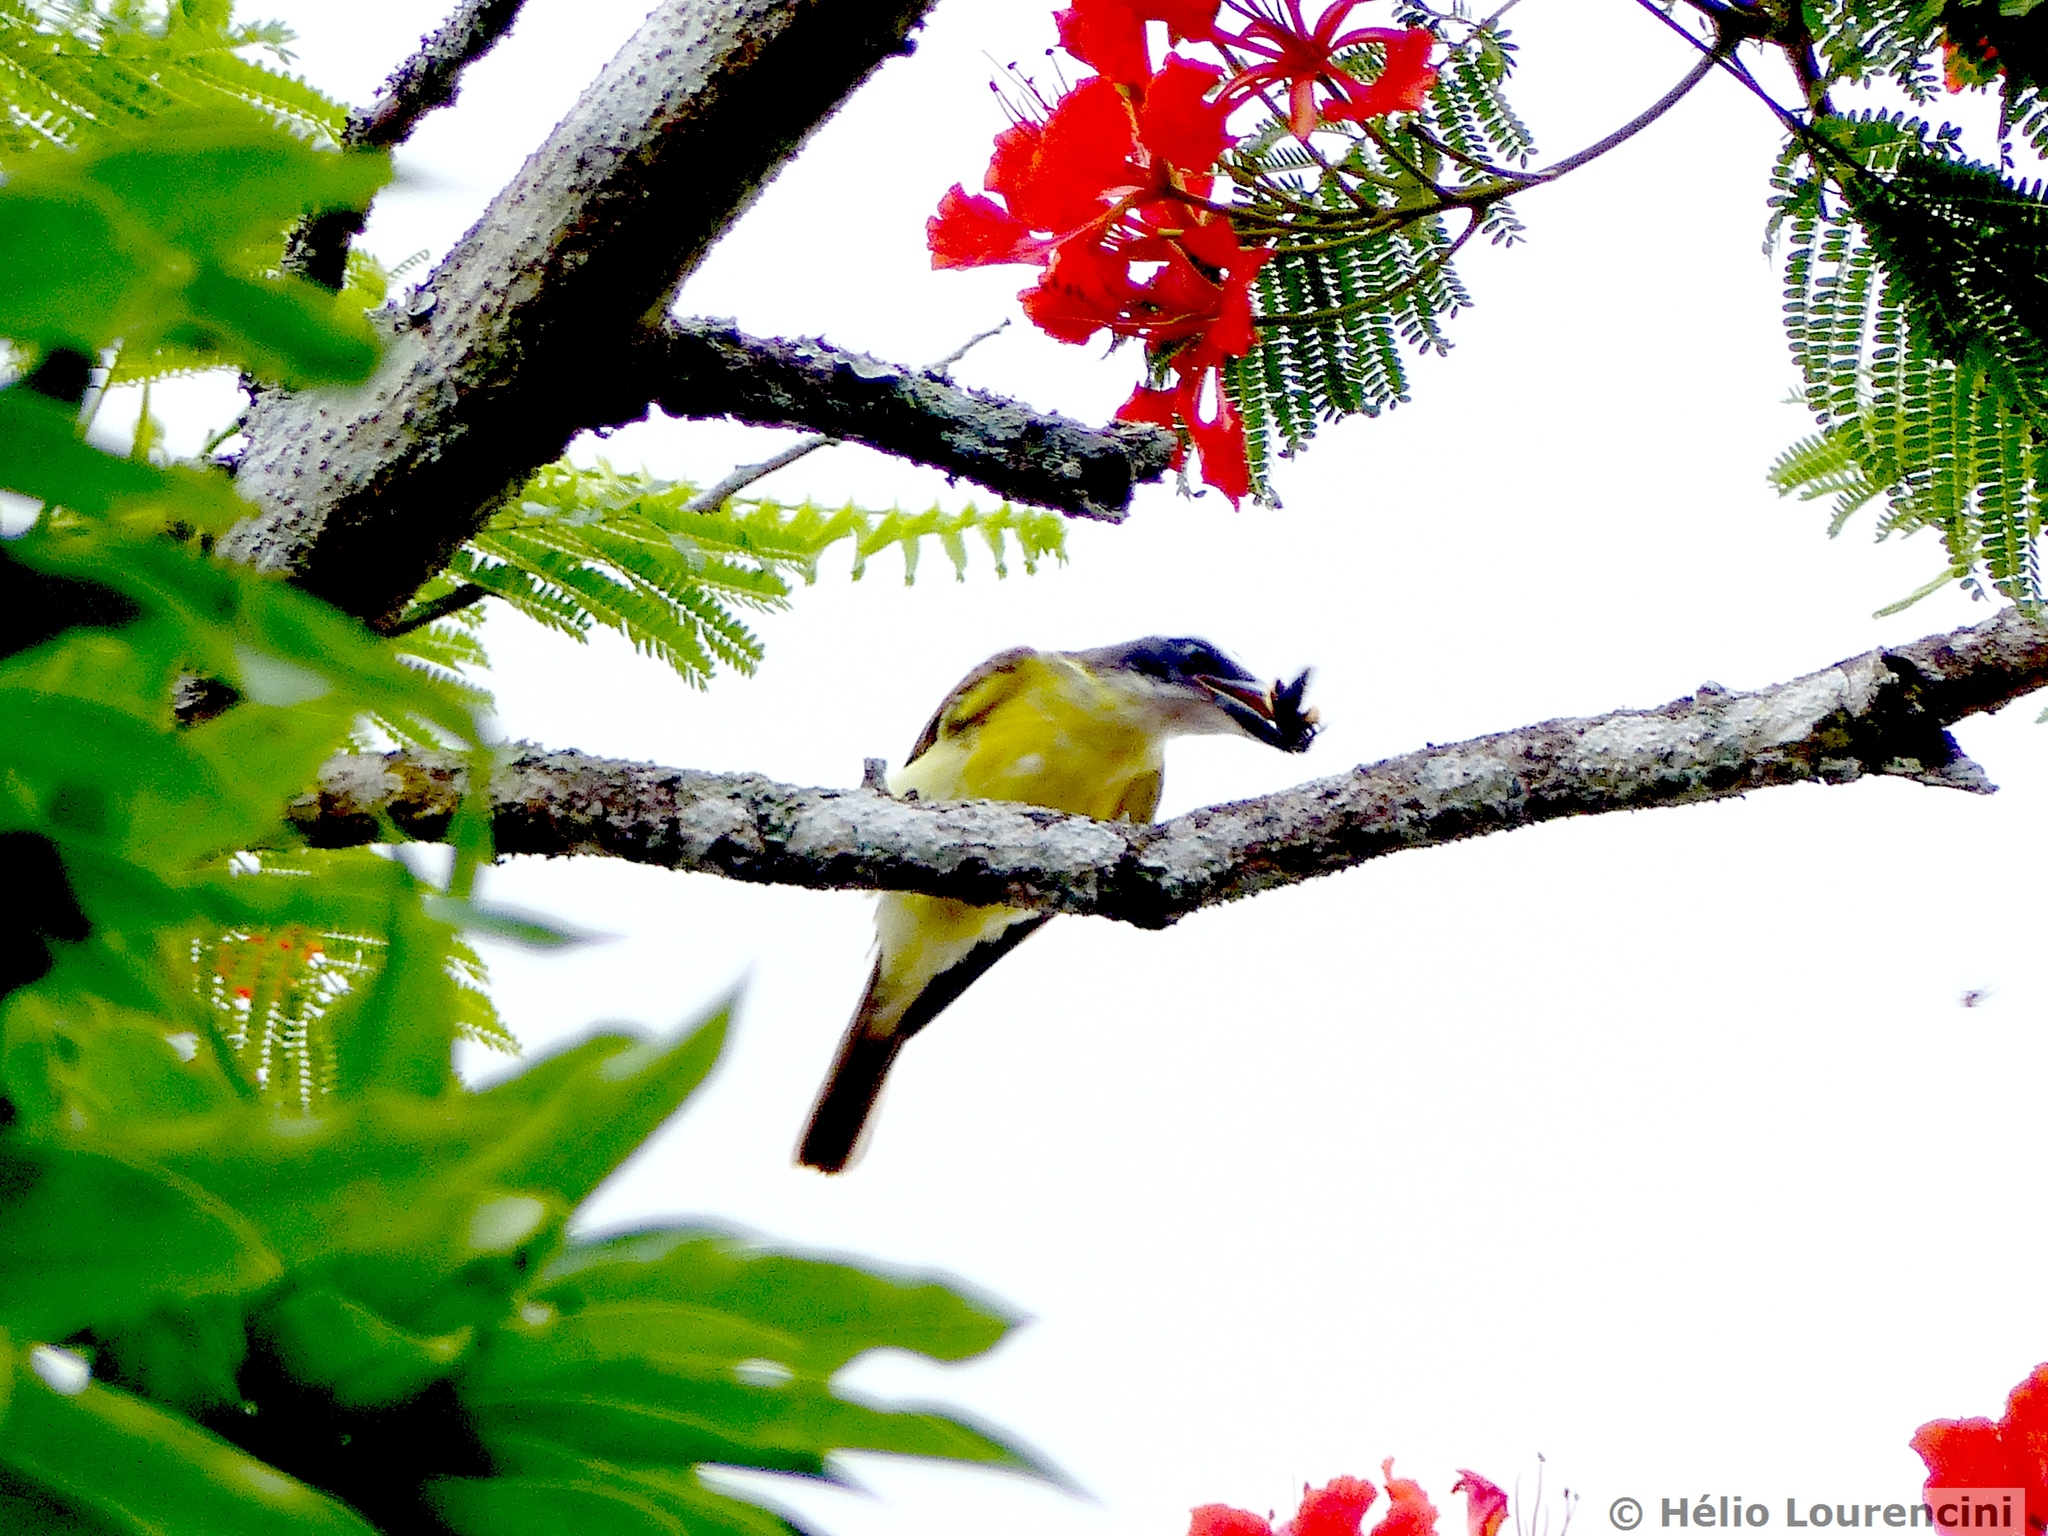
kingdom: Animalia
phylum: Chordata
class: Aves
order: Passeriformes
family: Tyrannidae
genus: Megarynchus
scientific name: Megarynchus pitangua
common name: Boat-billed flycatcher
